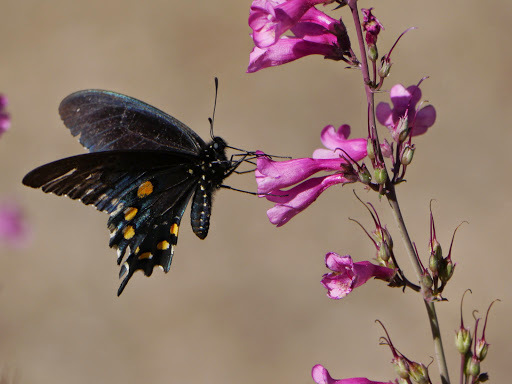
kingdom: Animalia
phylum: Arthropoda
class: Insecta
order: Lepidoptera
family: Papilionidae
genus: Battus
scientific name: Battus philenor
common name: Pipevine swallowtail
